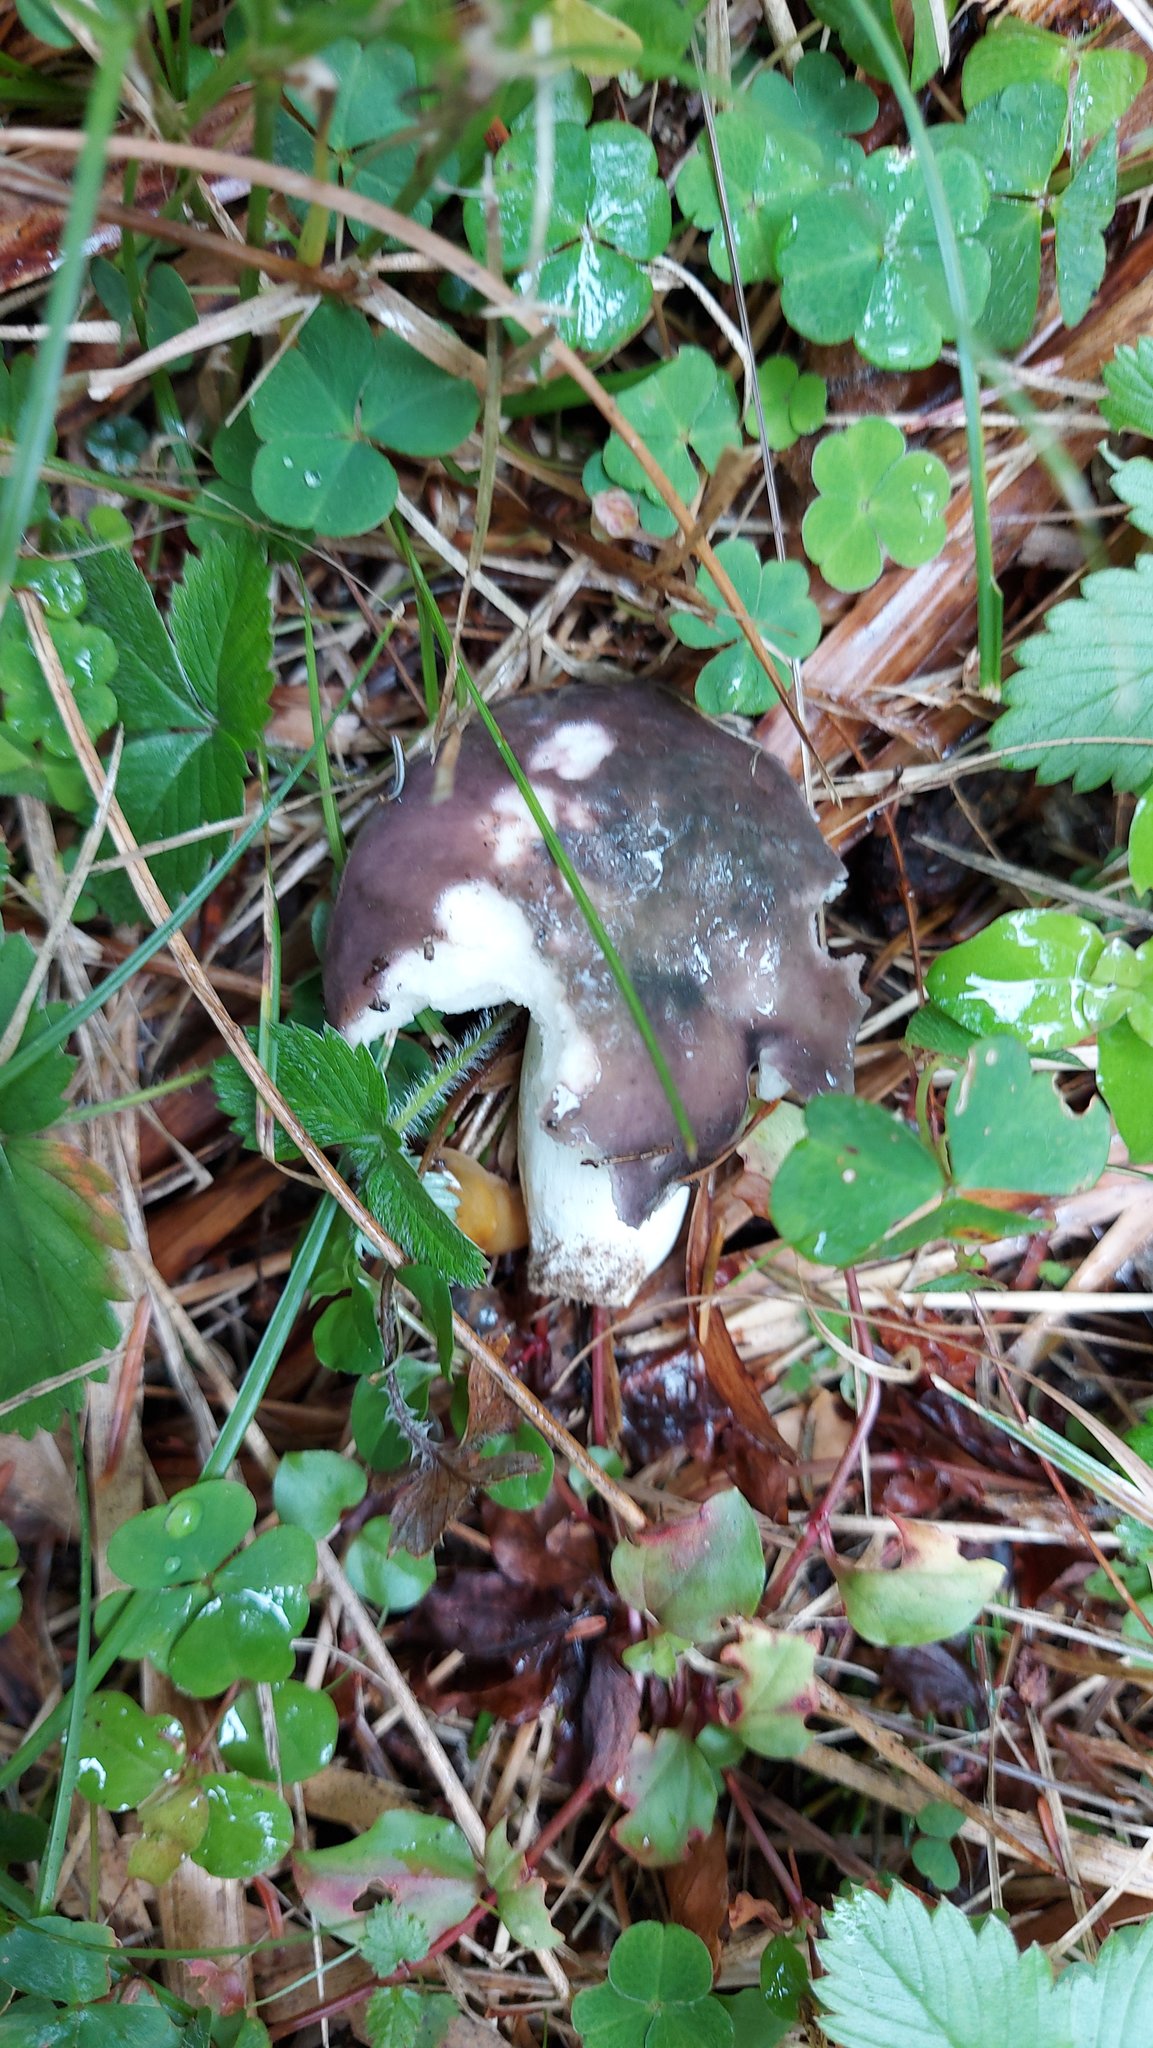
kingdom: Fungi
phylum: Basidiomycota
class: Agaricomycetes
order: Russulales
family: Russulaceae
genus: Russula
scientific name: Russula cyanoxantha
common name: Charcoal burner
